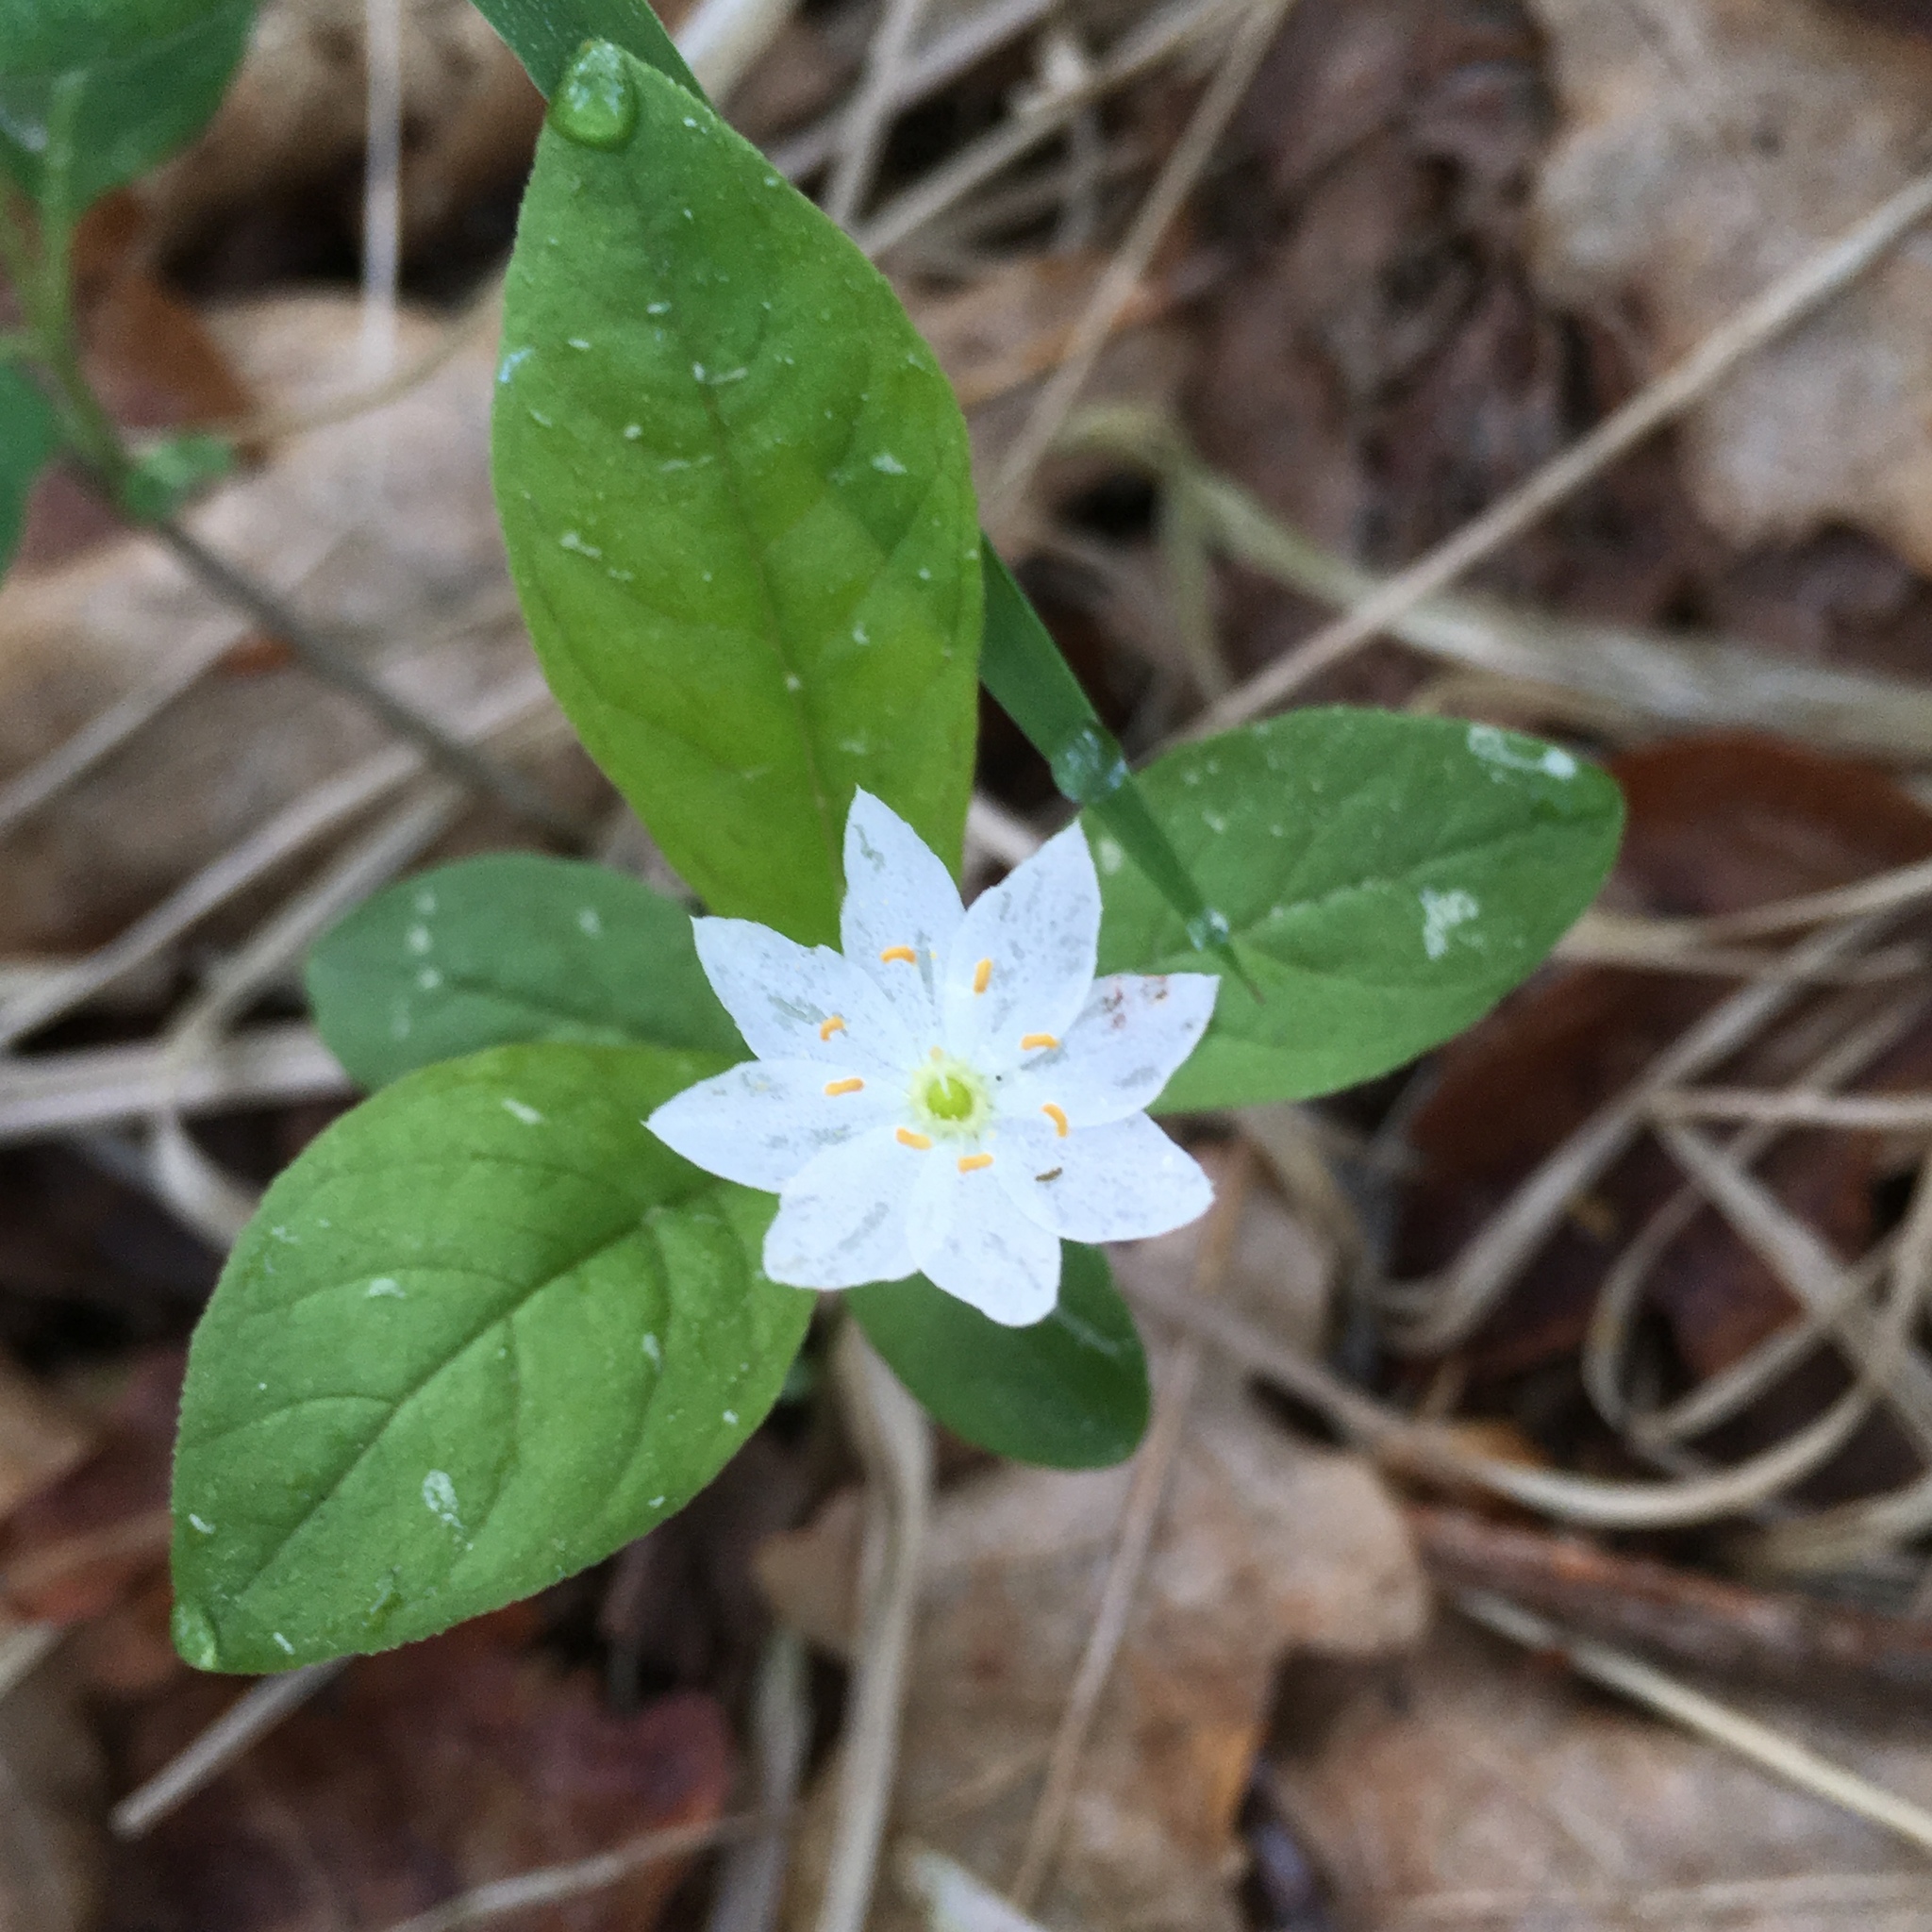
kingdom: Plantae
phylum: Tracheophyta
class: Magnoliopsida
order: Ericales
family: Primulaceae
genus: Lysimachia
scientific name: Lysimachia europaea
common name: Arctic starflower
